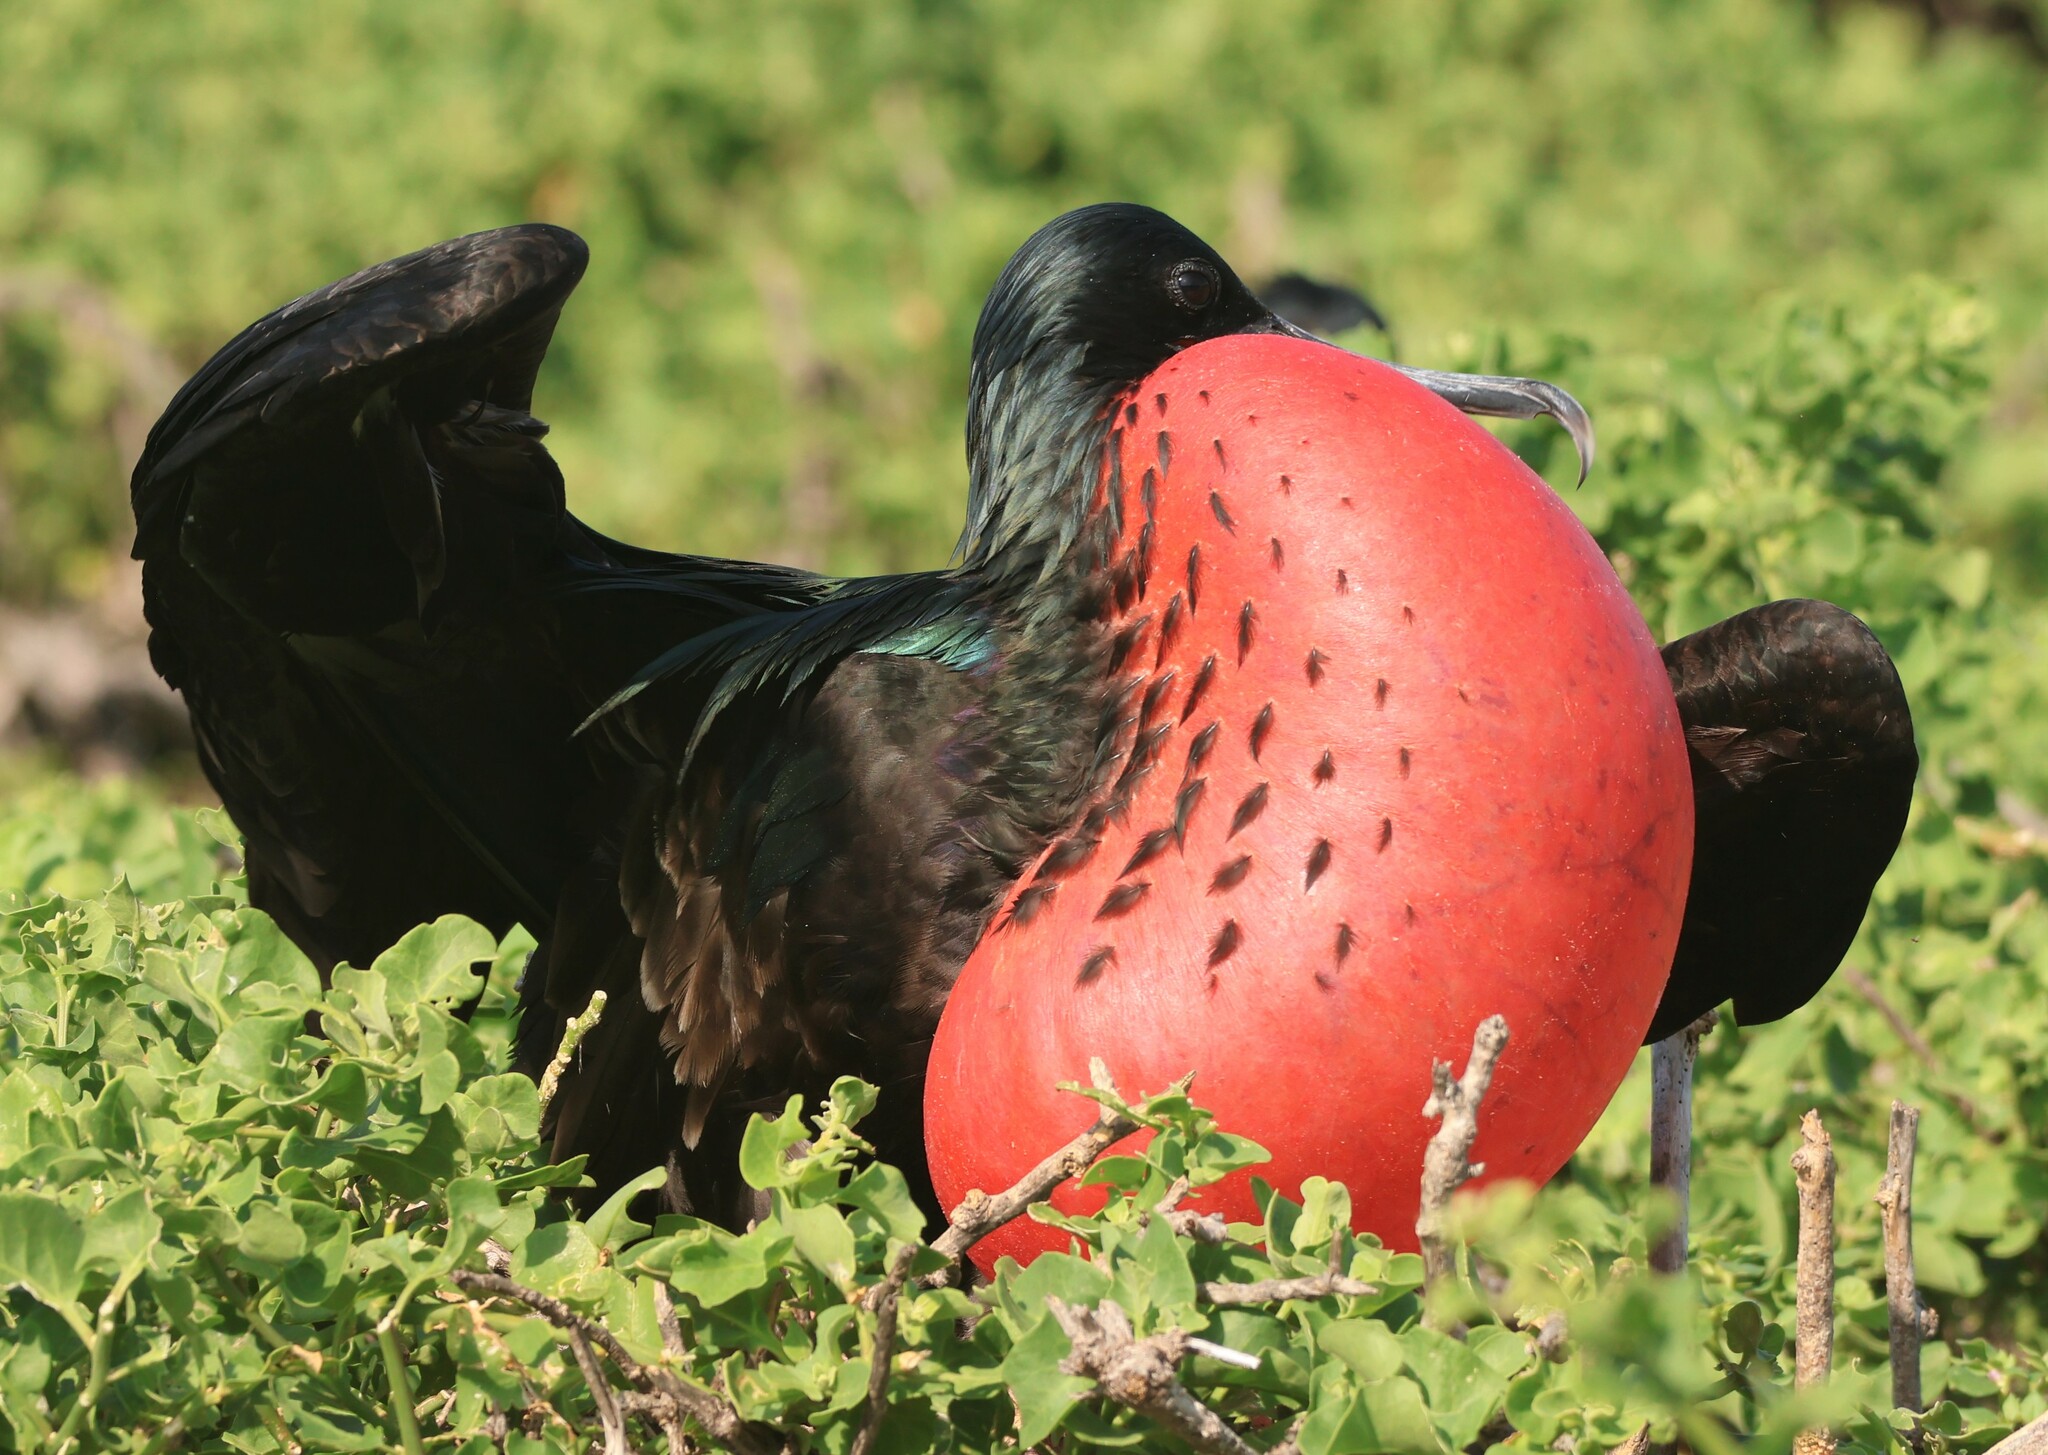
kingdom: Animalia
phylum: Chordata
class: Aves
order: Suliformes
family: Fregatidae
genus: Fregata
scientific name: Fregata minor
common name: Great frigatebird
